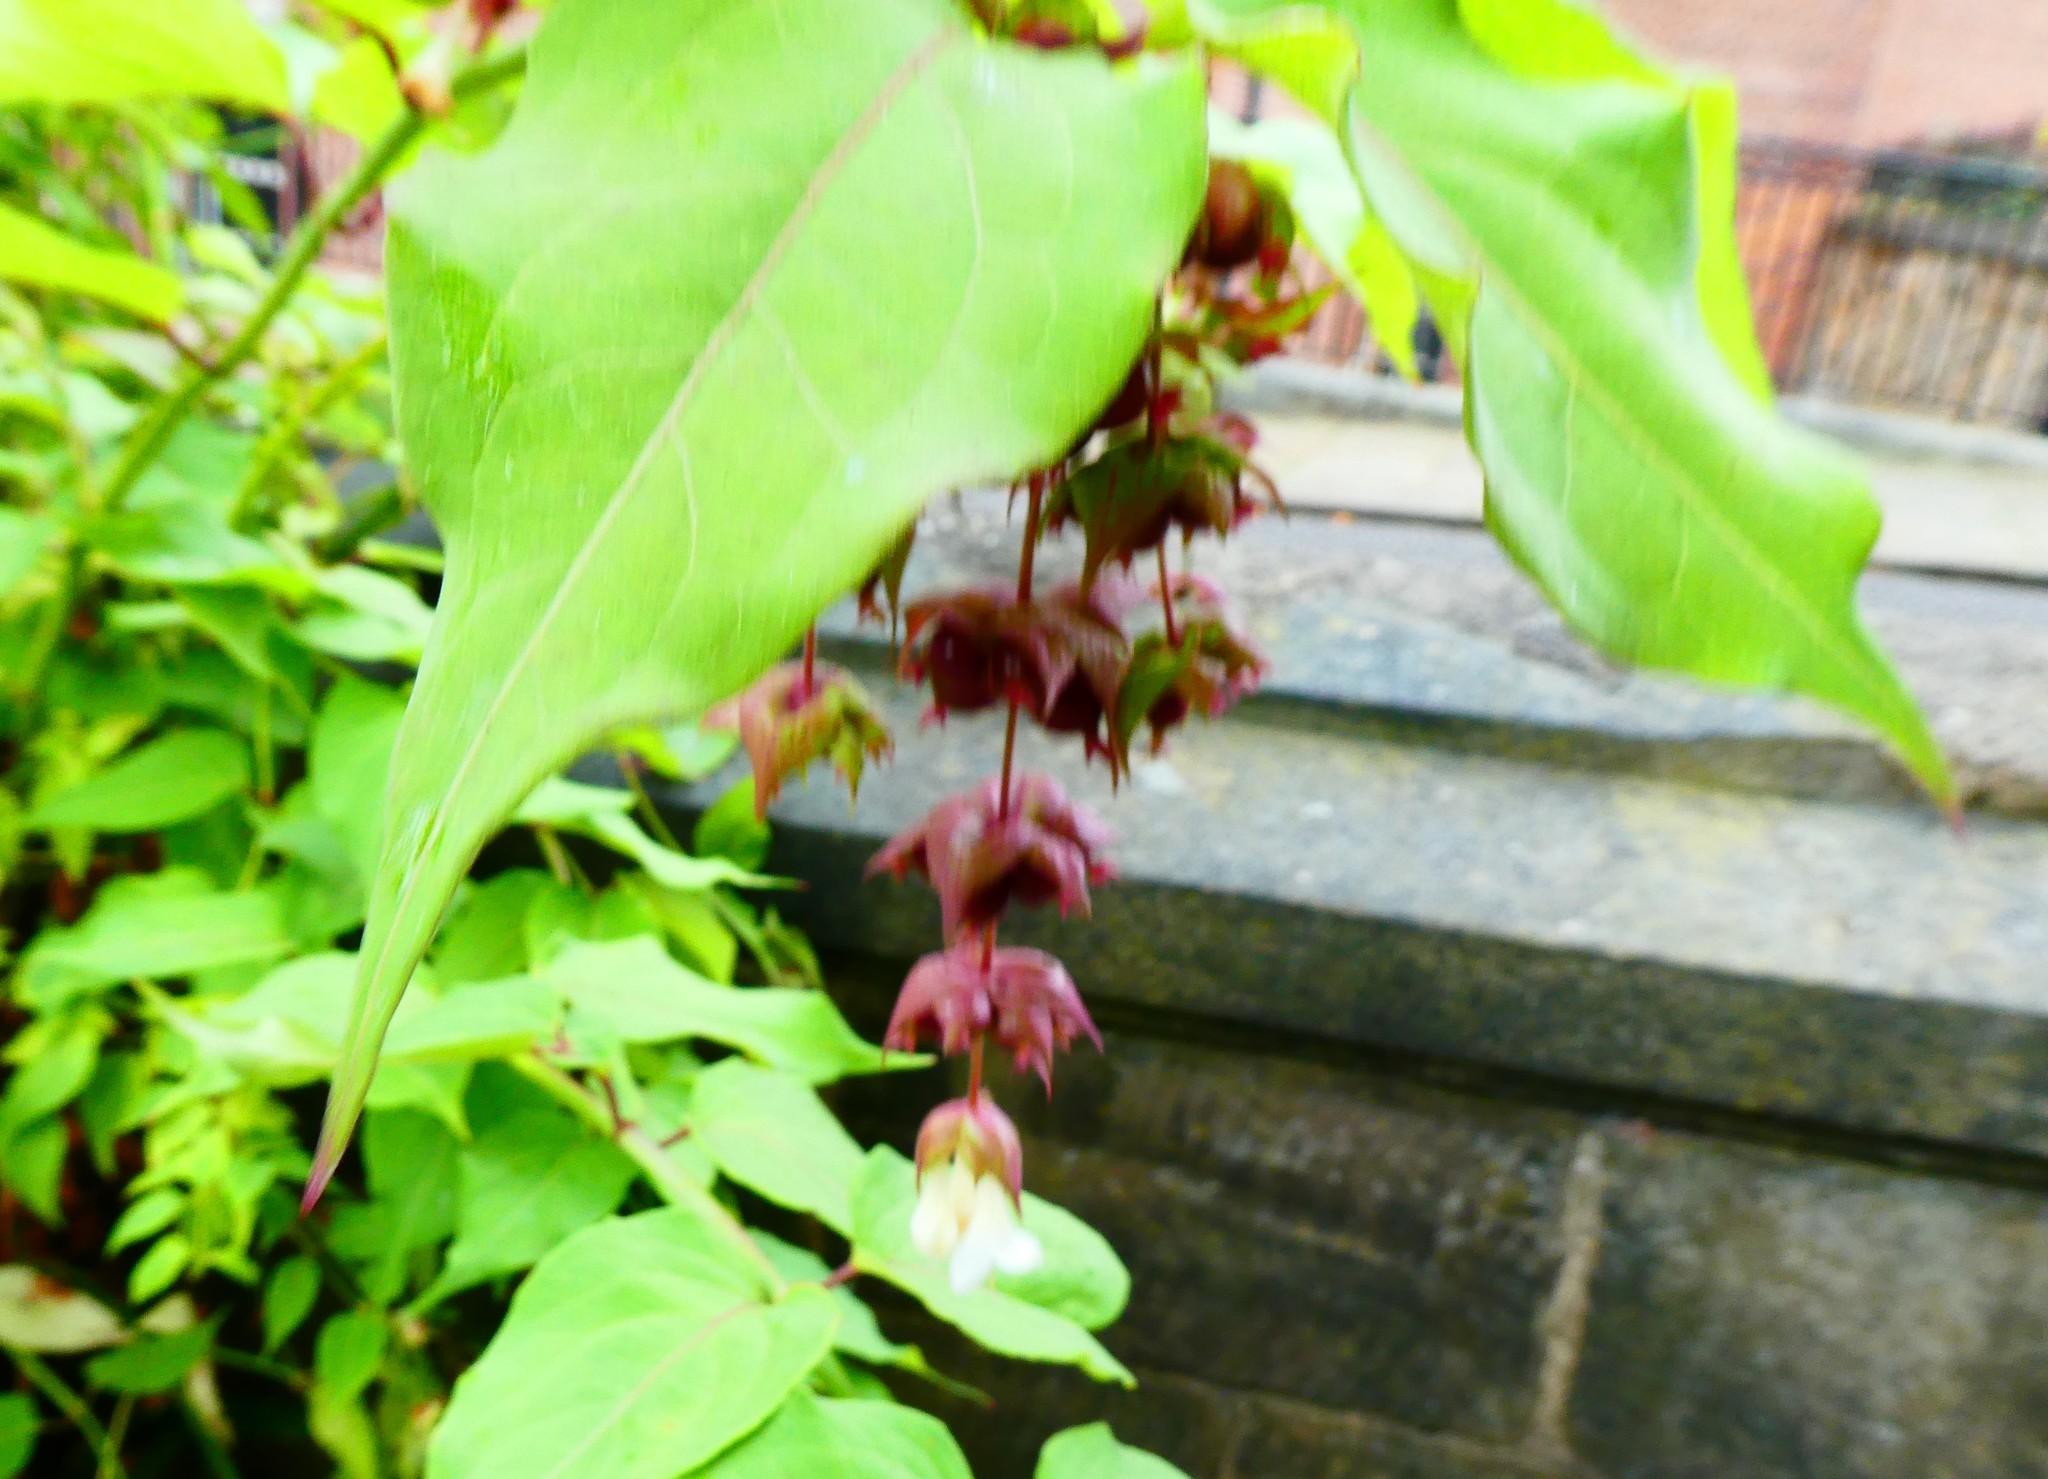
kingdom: Plantae
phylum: Tracheophyta
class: Magnoliopsida
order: Dipsacales
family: Caprifoliaceae
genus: Leycesteria
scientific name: Leycesteria formosa
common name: Himalayan honeysuckle
